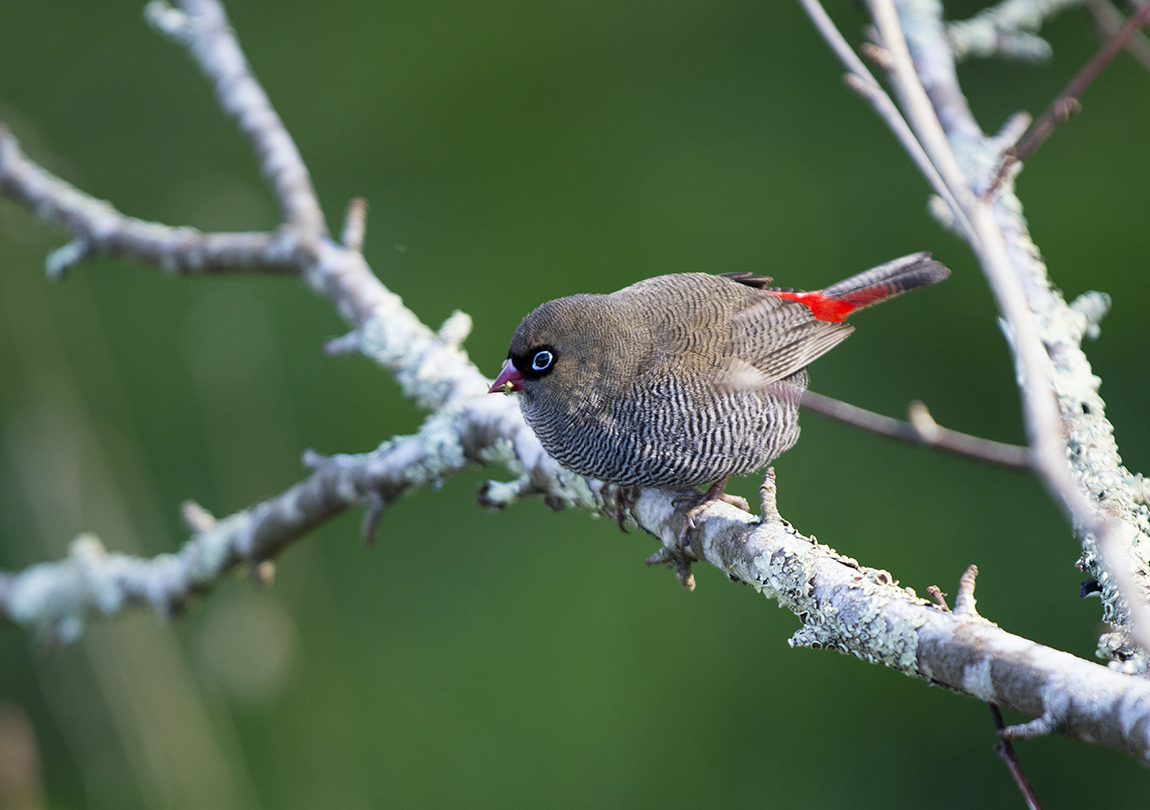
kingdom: Animalia
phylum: Chordata
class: Aves
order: Passeriformes
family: Estrildidae
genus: Stagonopleura
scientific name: Stagonopleura bella
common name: Beautiful firetail
